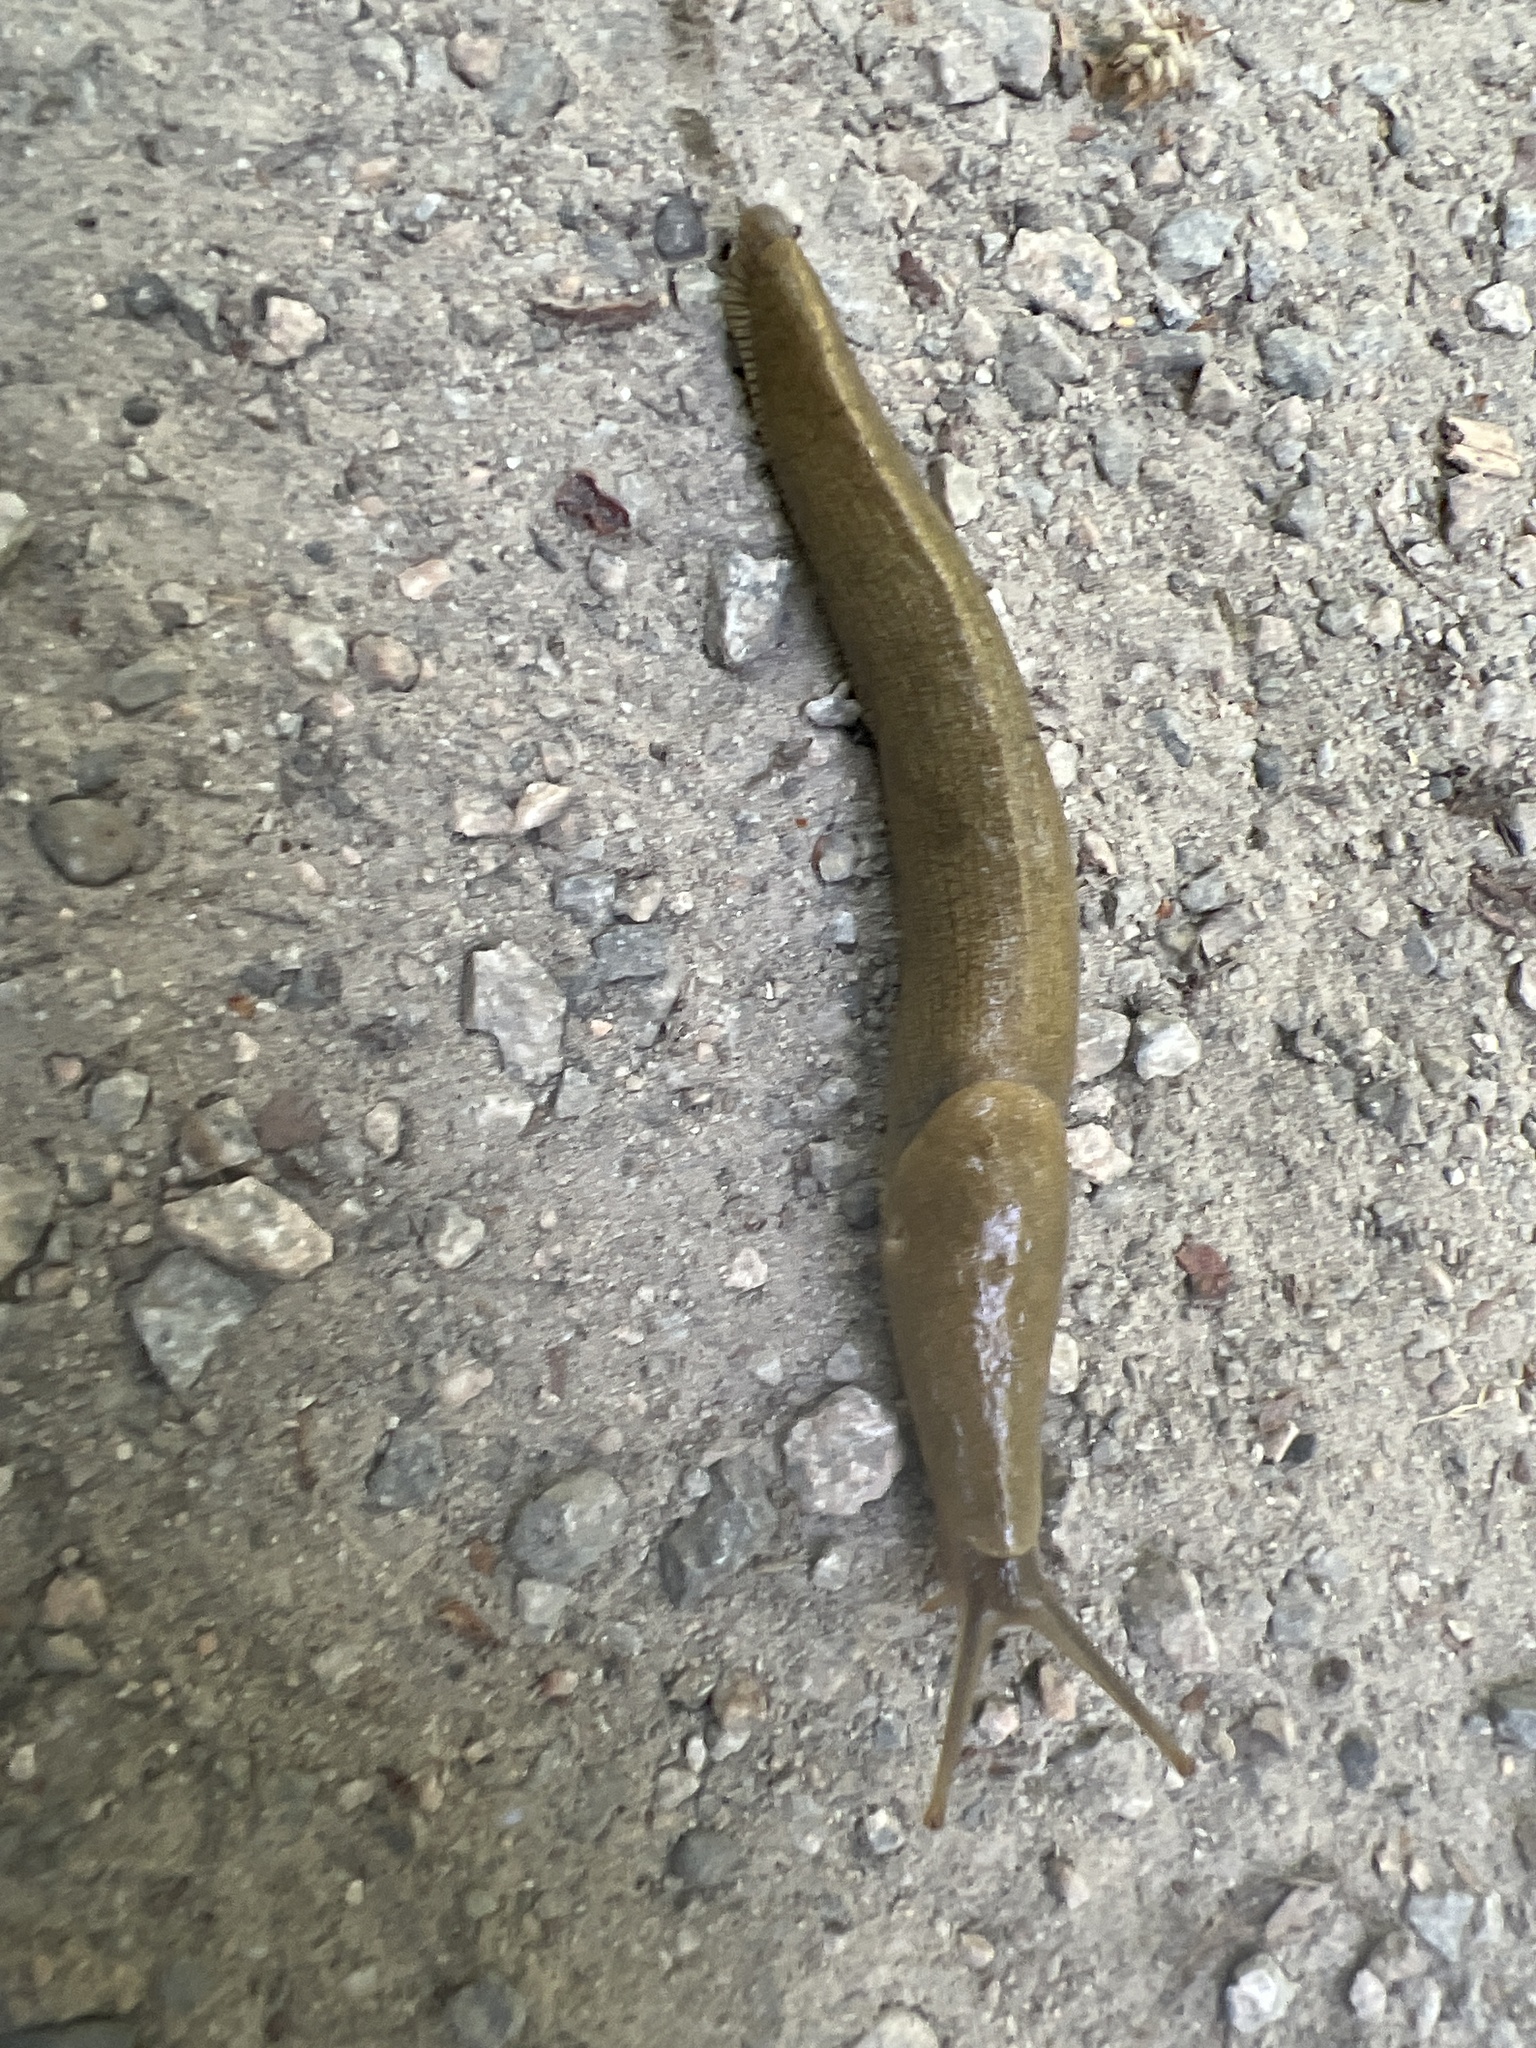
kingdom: Animalia
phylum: Mollusca
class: Gastropoda
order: Stylommatophora
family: Ariolimacidae
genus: Ariolimax
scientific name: Ariolimax columbianus
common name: Pacific banana slug
